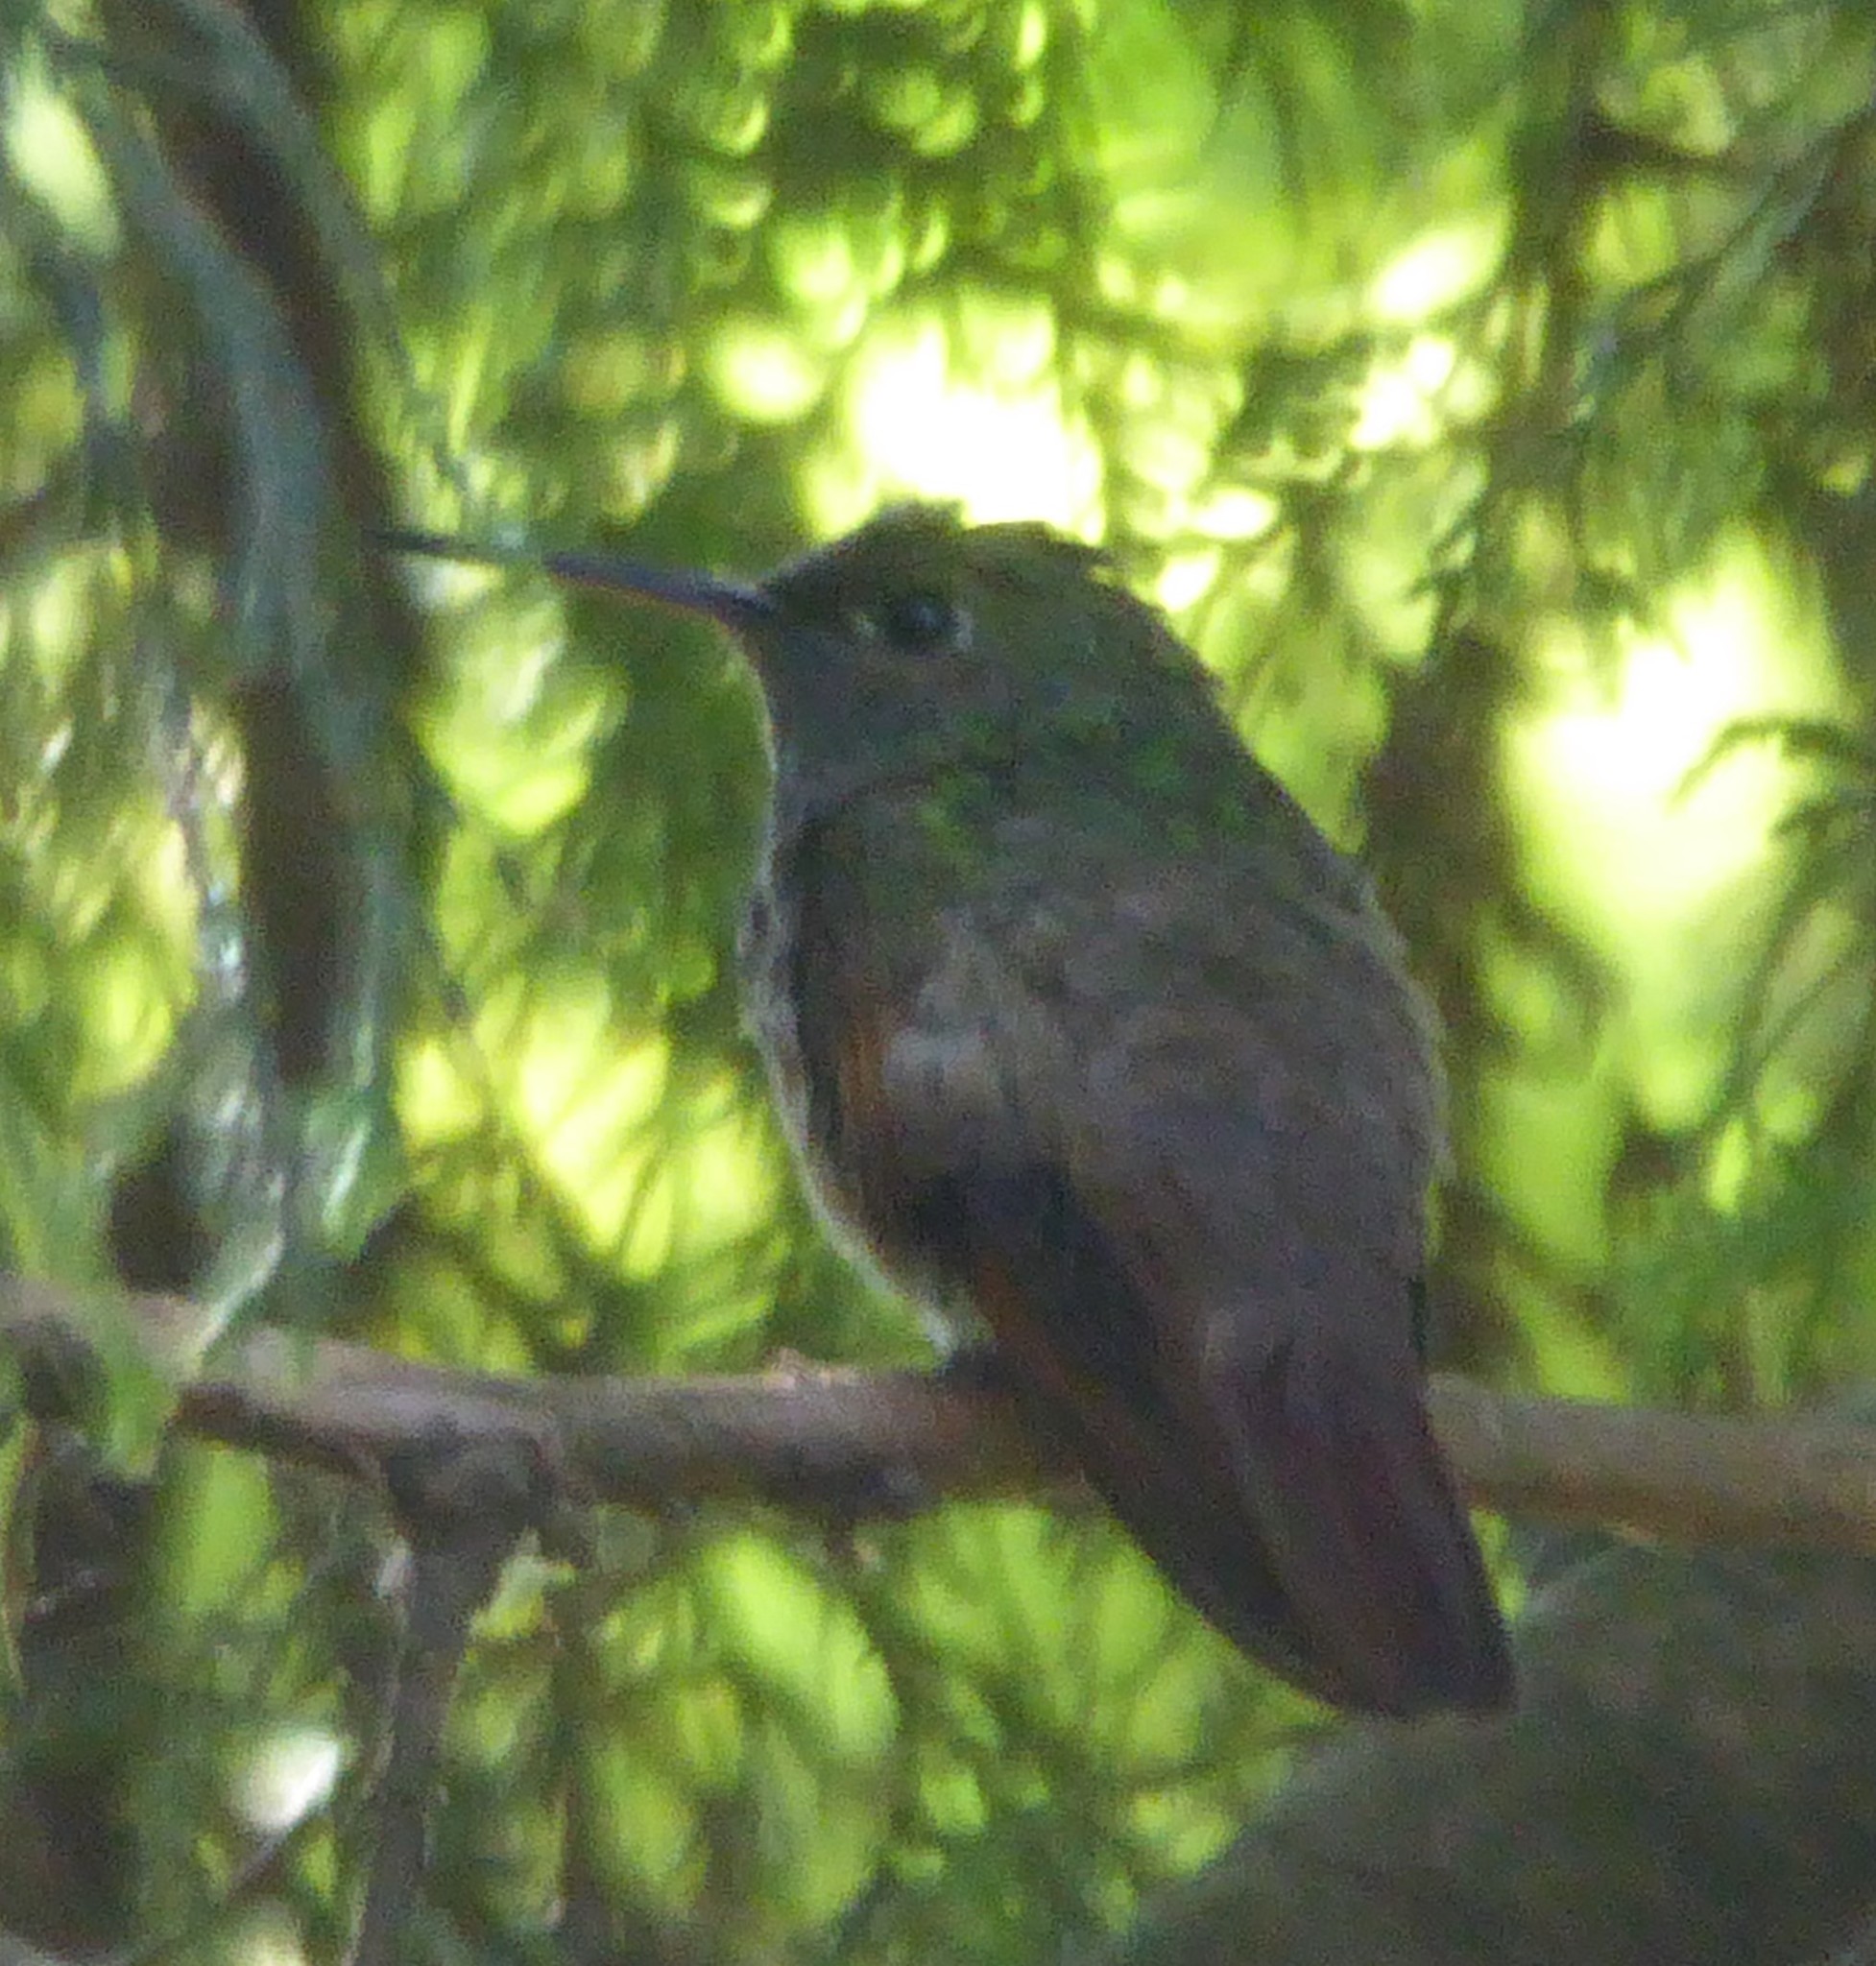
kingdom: Animalia
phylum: Chordata
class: Aves
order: Apodiformes
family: Trochilidae
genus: Saucerottia
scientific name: Saucerottia beryllina
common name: Berylline hummingbird
